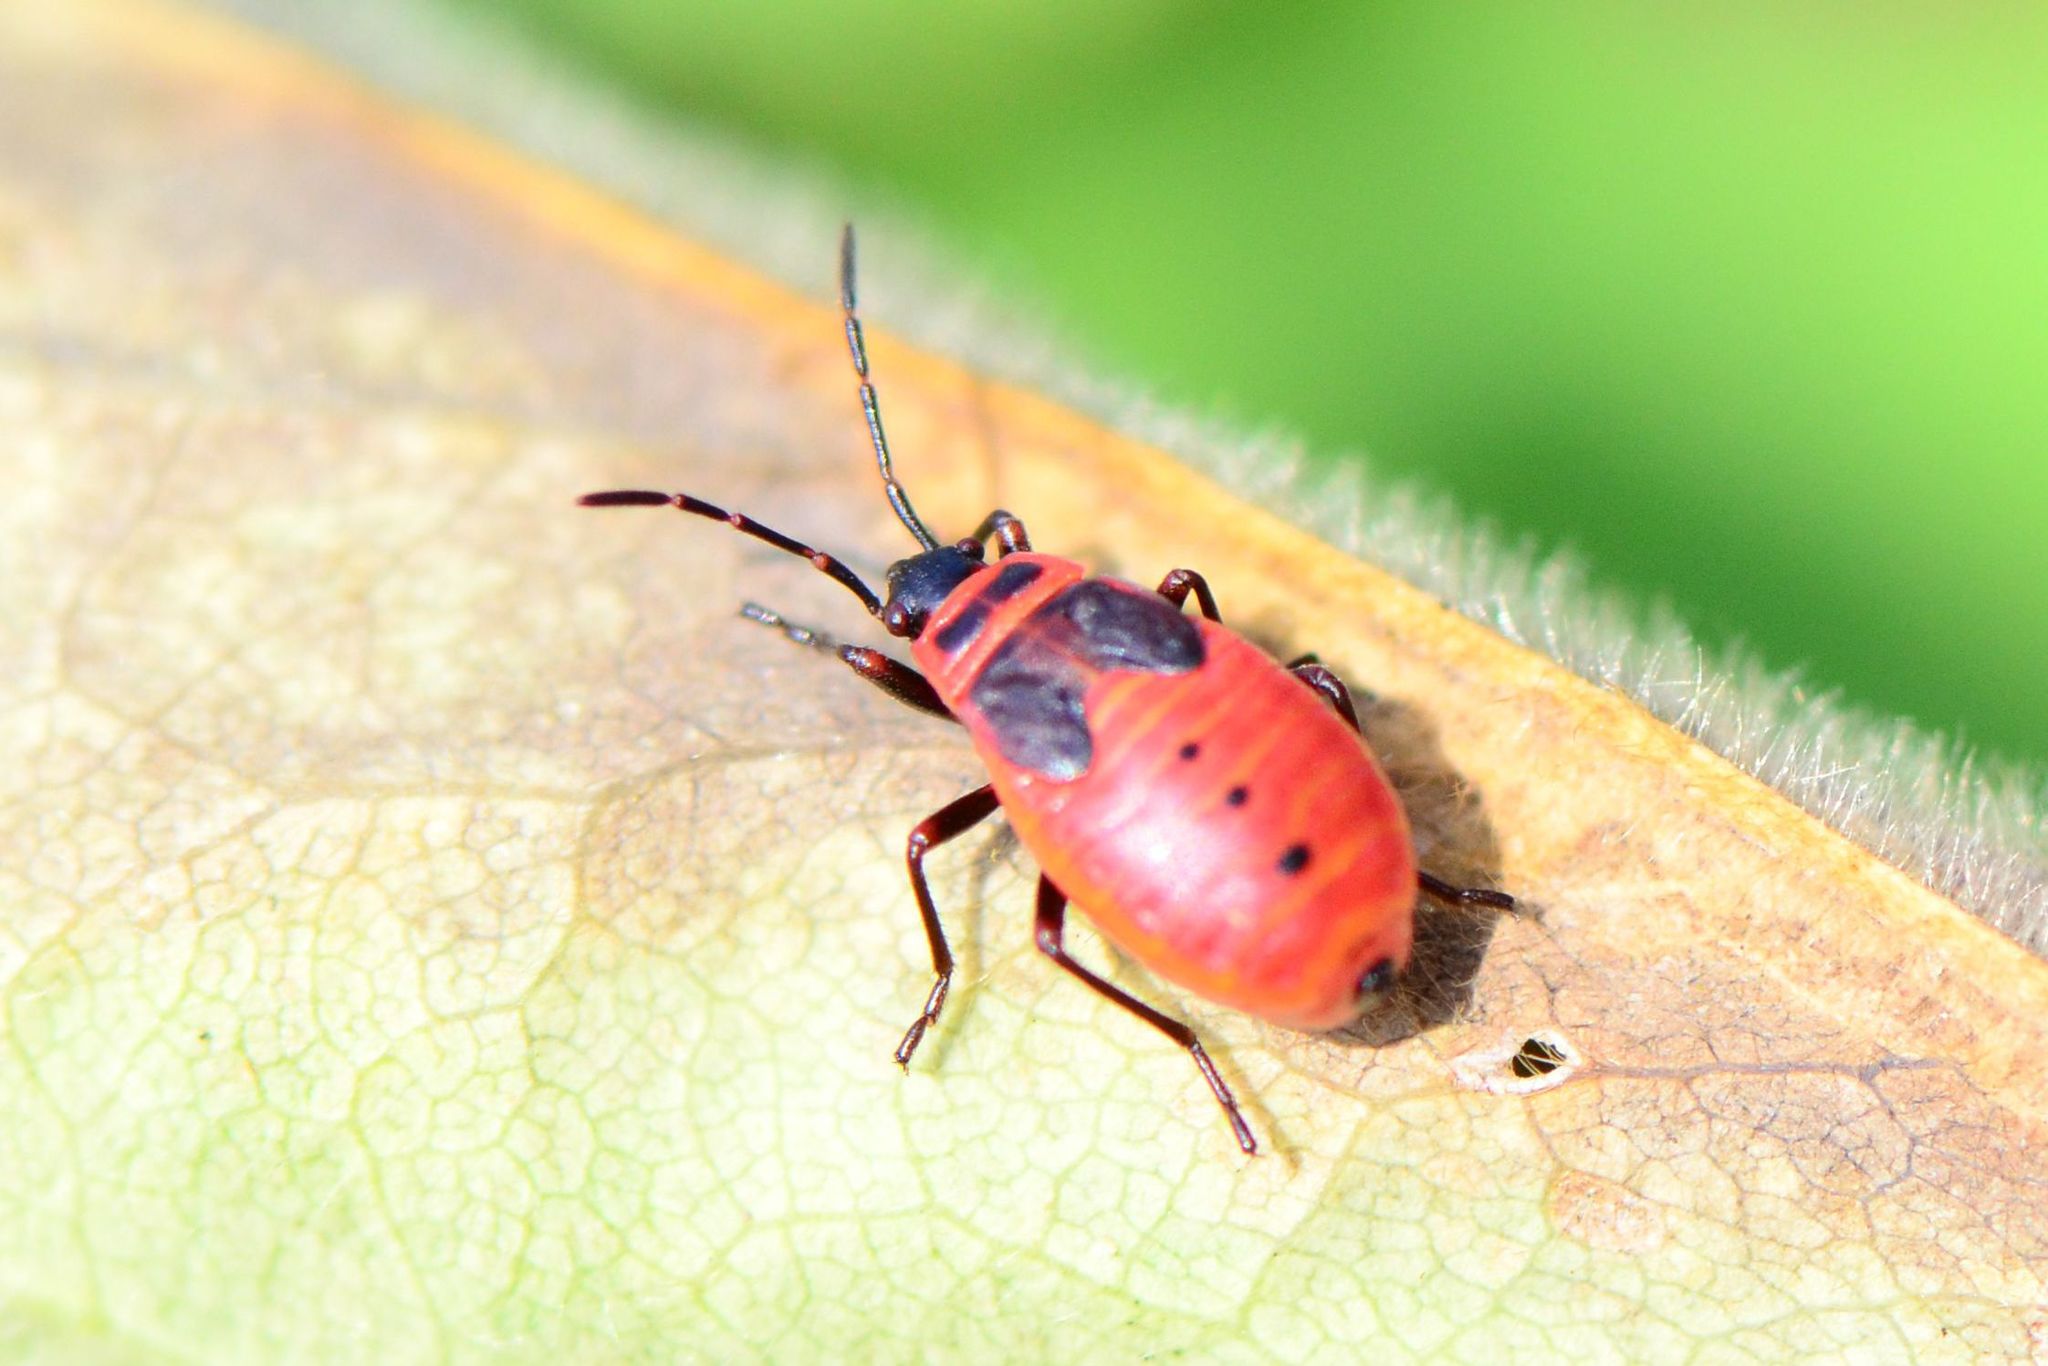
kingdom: Animalia
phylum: Arthropoda
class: Insecta
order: Hemiptera
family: Pyrrhocoridae
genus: Pyrrhocoris
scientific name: Pyrrhocoris apterus
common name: Firebug
